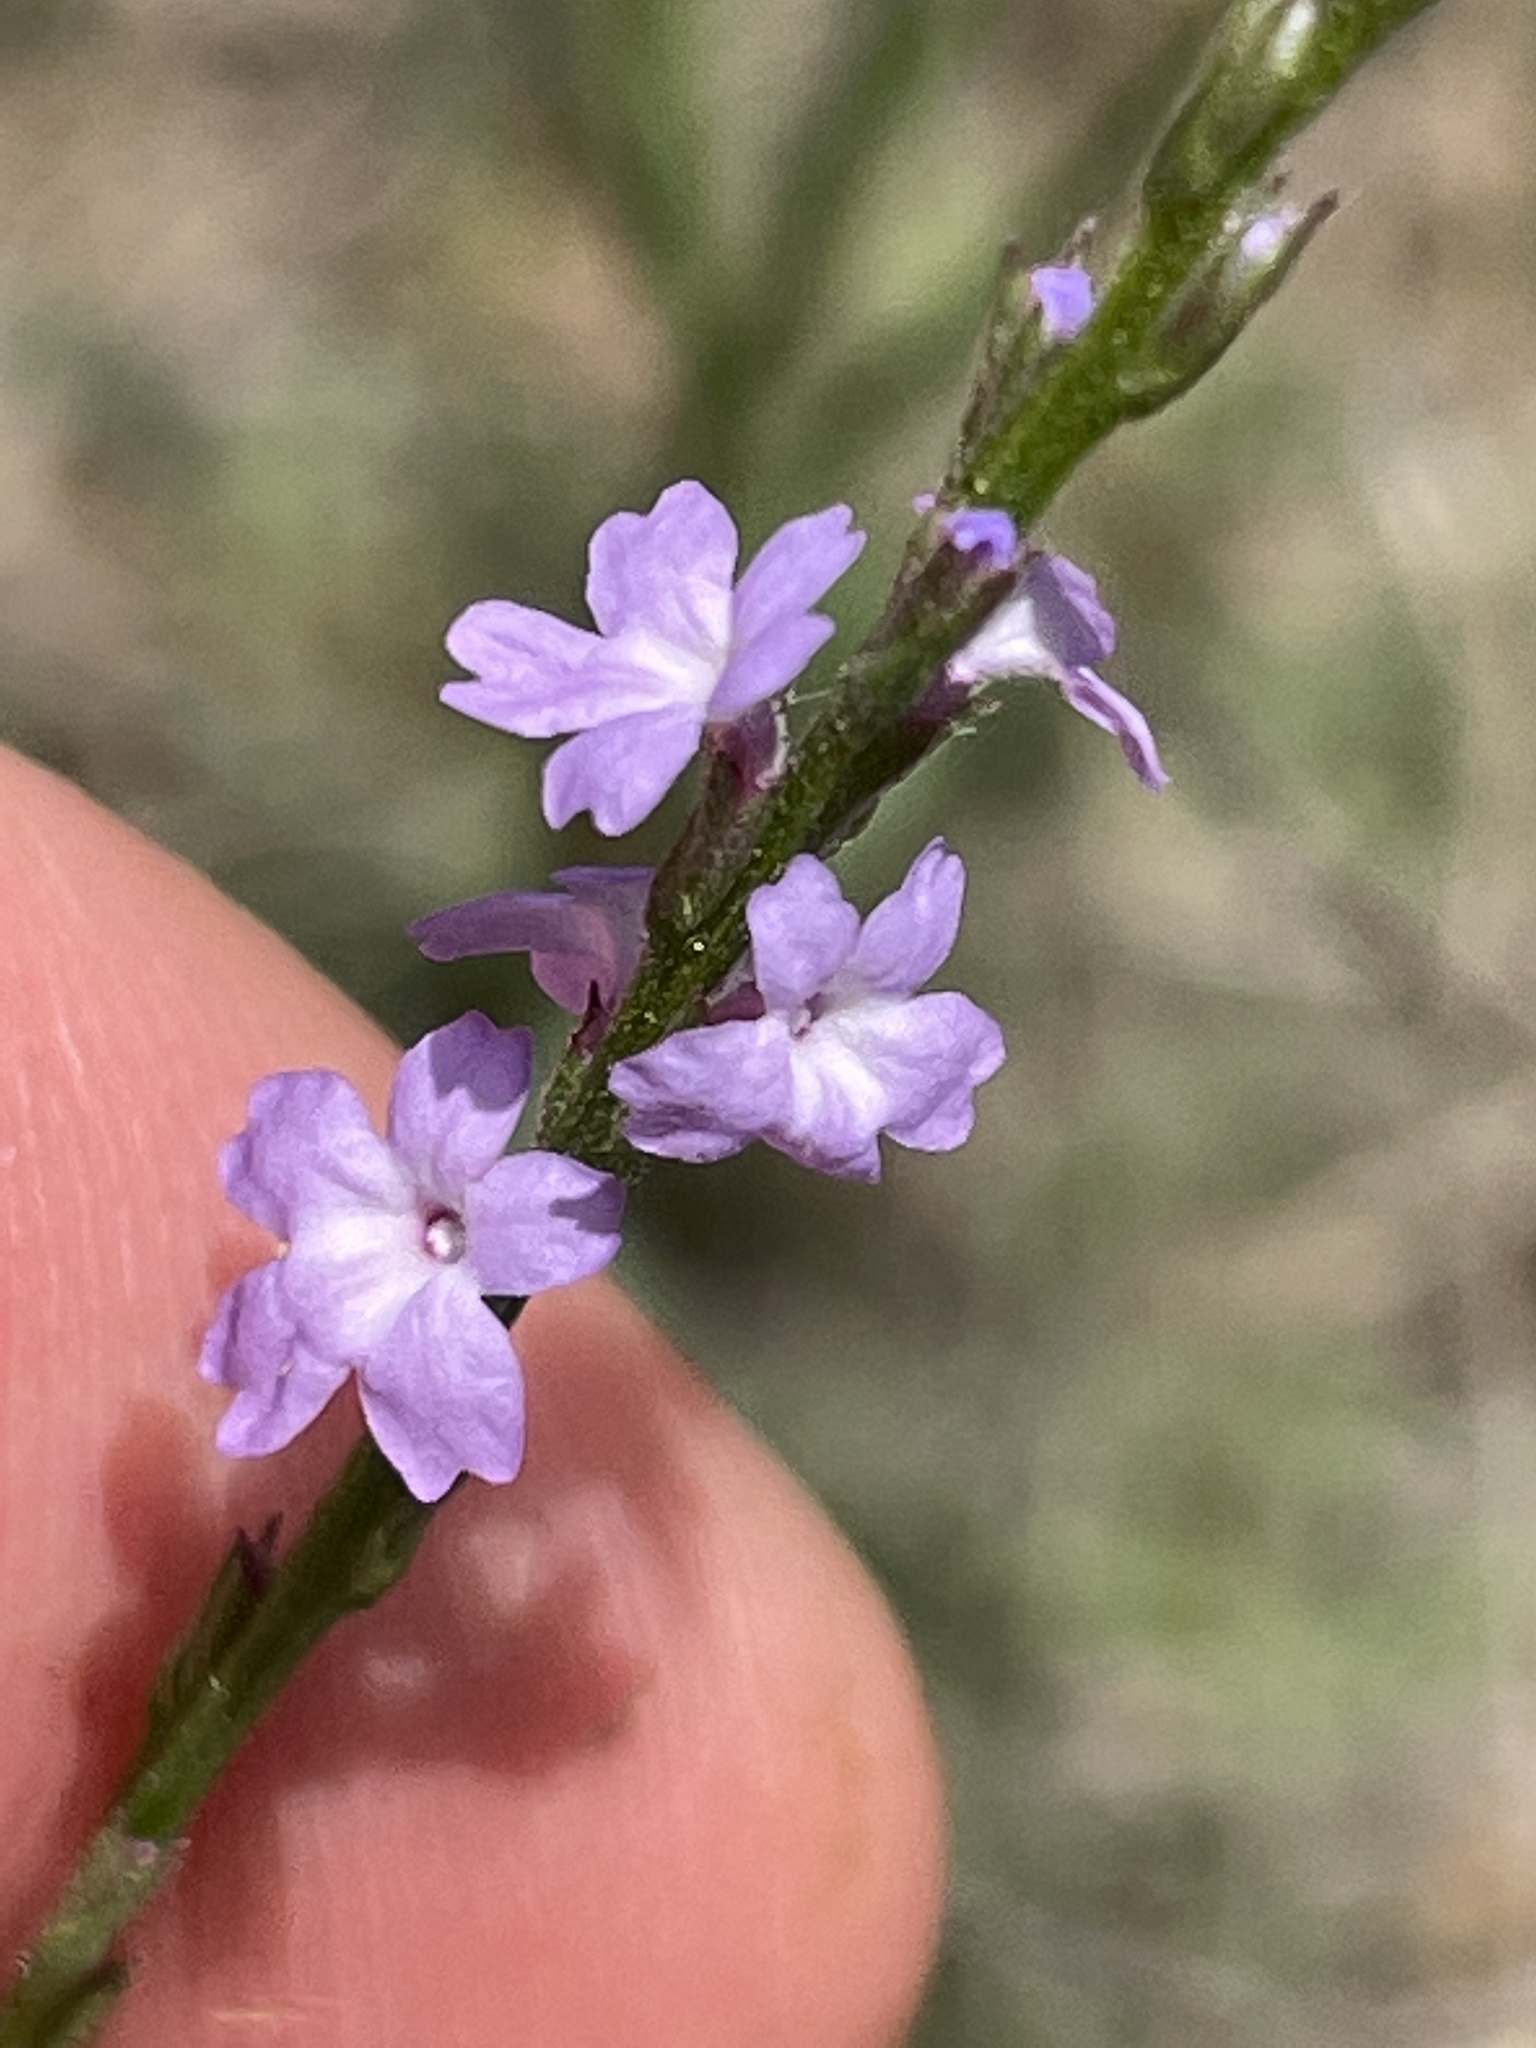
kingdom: Plantae
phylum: Tracheophyta
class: Magnoliopsida
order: Lamiales
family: Verbenaceae
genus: Verbena
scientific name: Verbena halei
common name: Texas vervain
